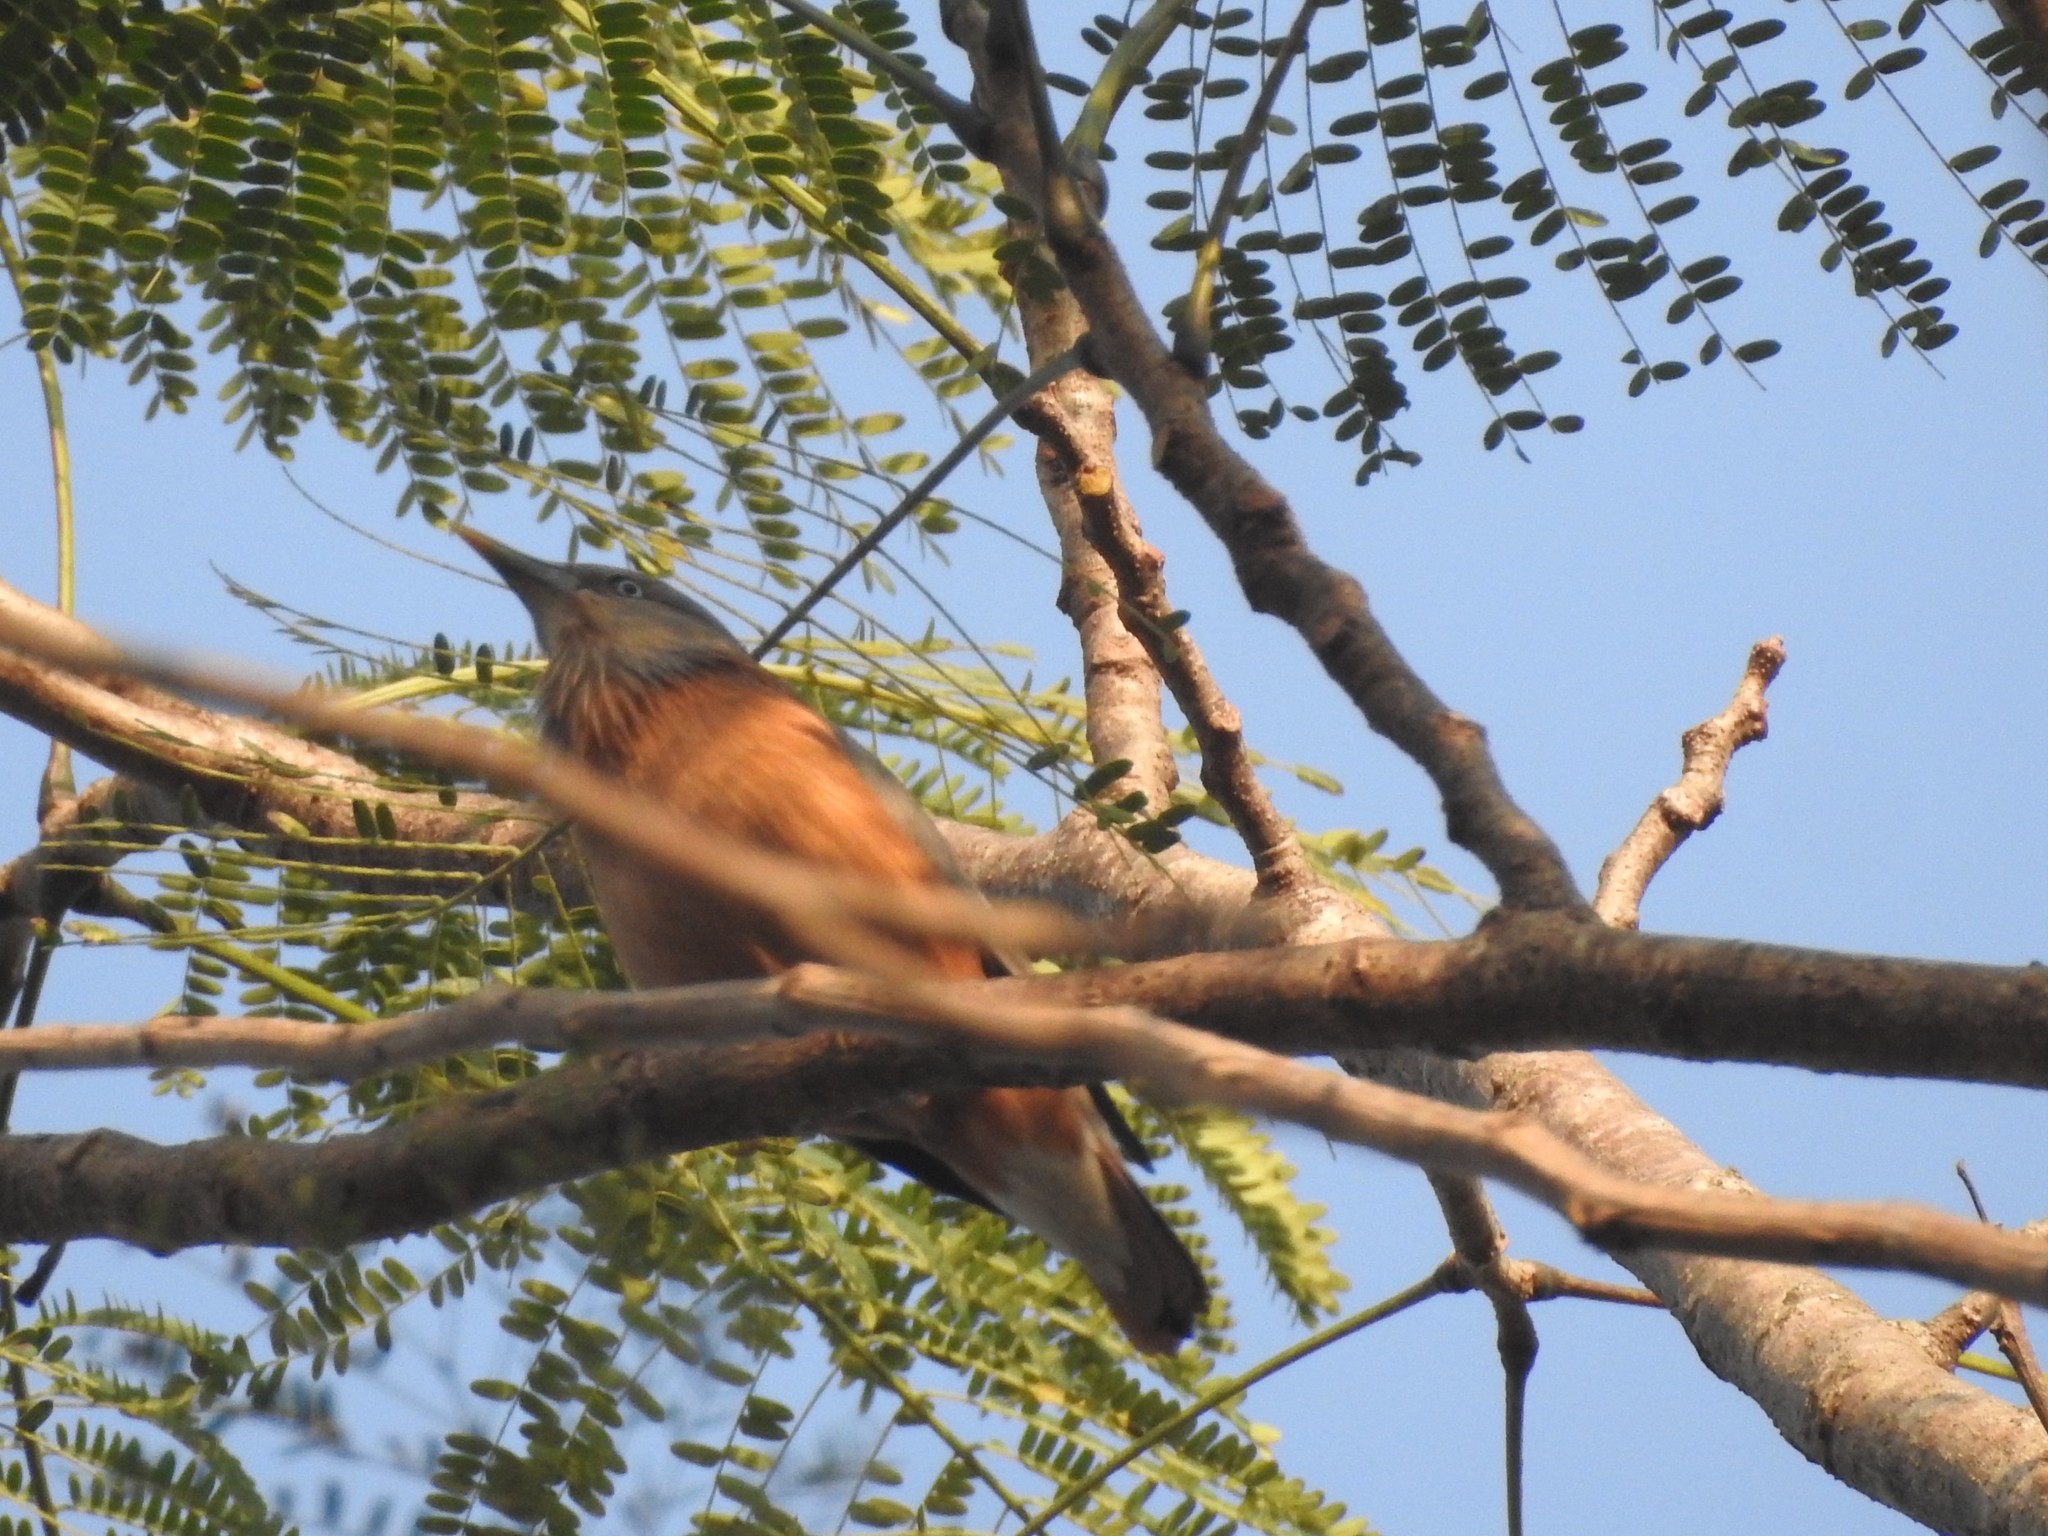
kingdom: Animalia
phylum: Chordata
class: Aves
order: Passeriformes
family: Sturnidae
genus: Sturnia
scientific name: Sturnia malabarica
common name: Chestnut-tailed starling
